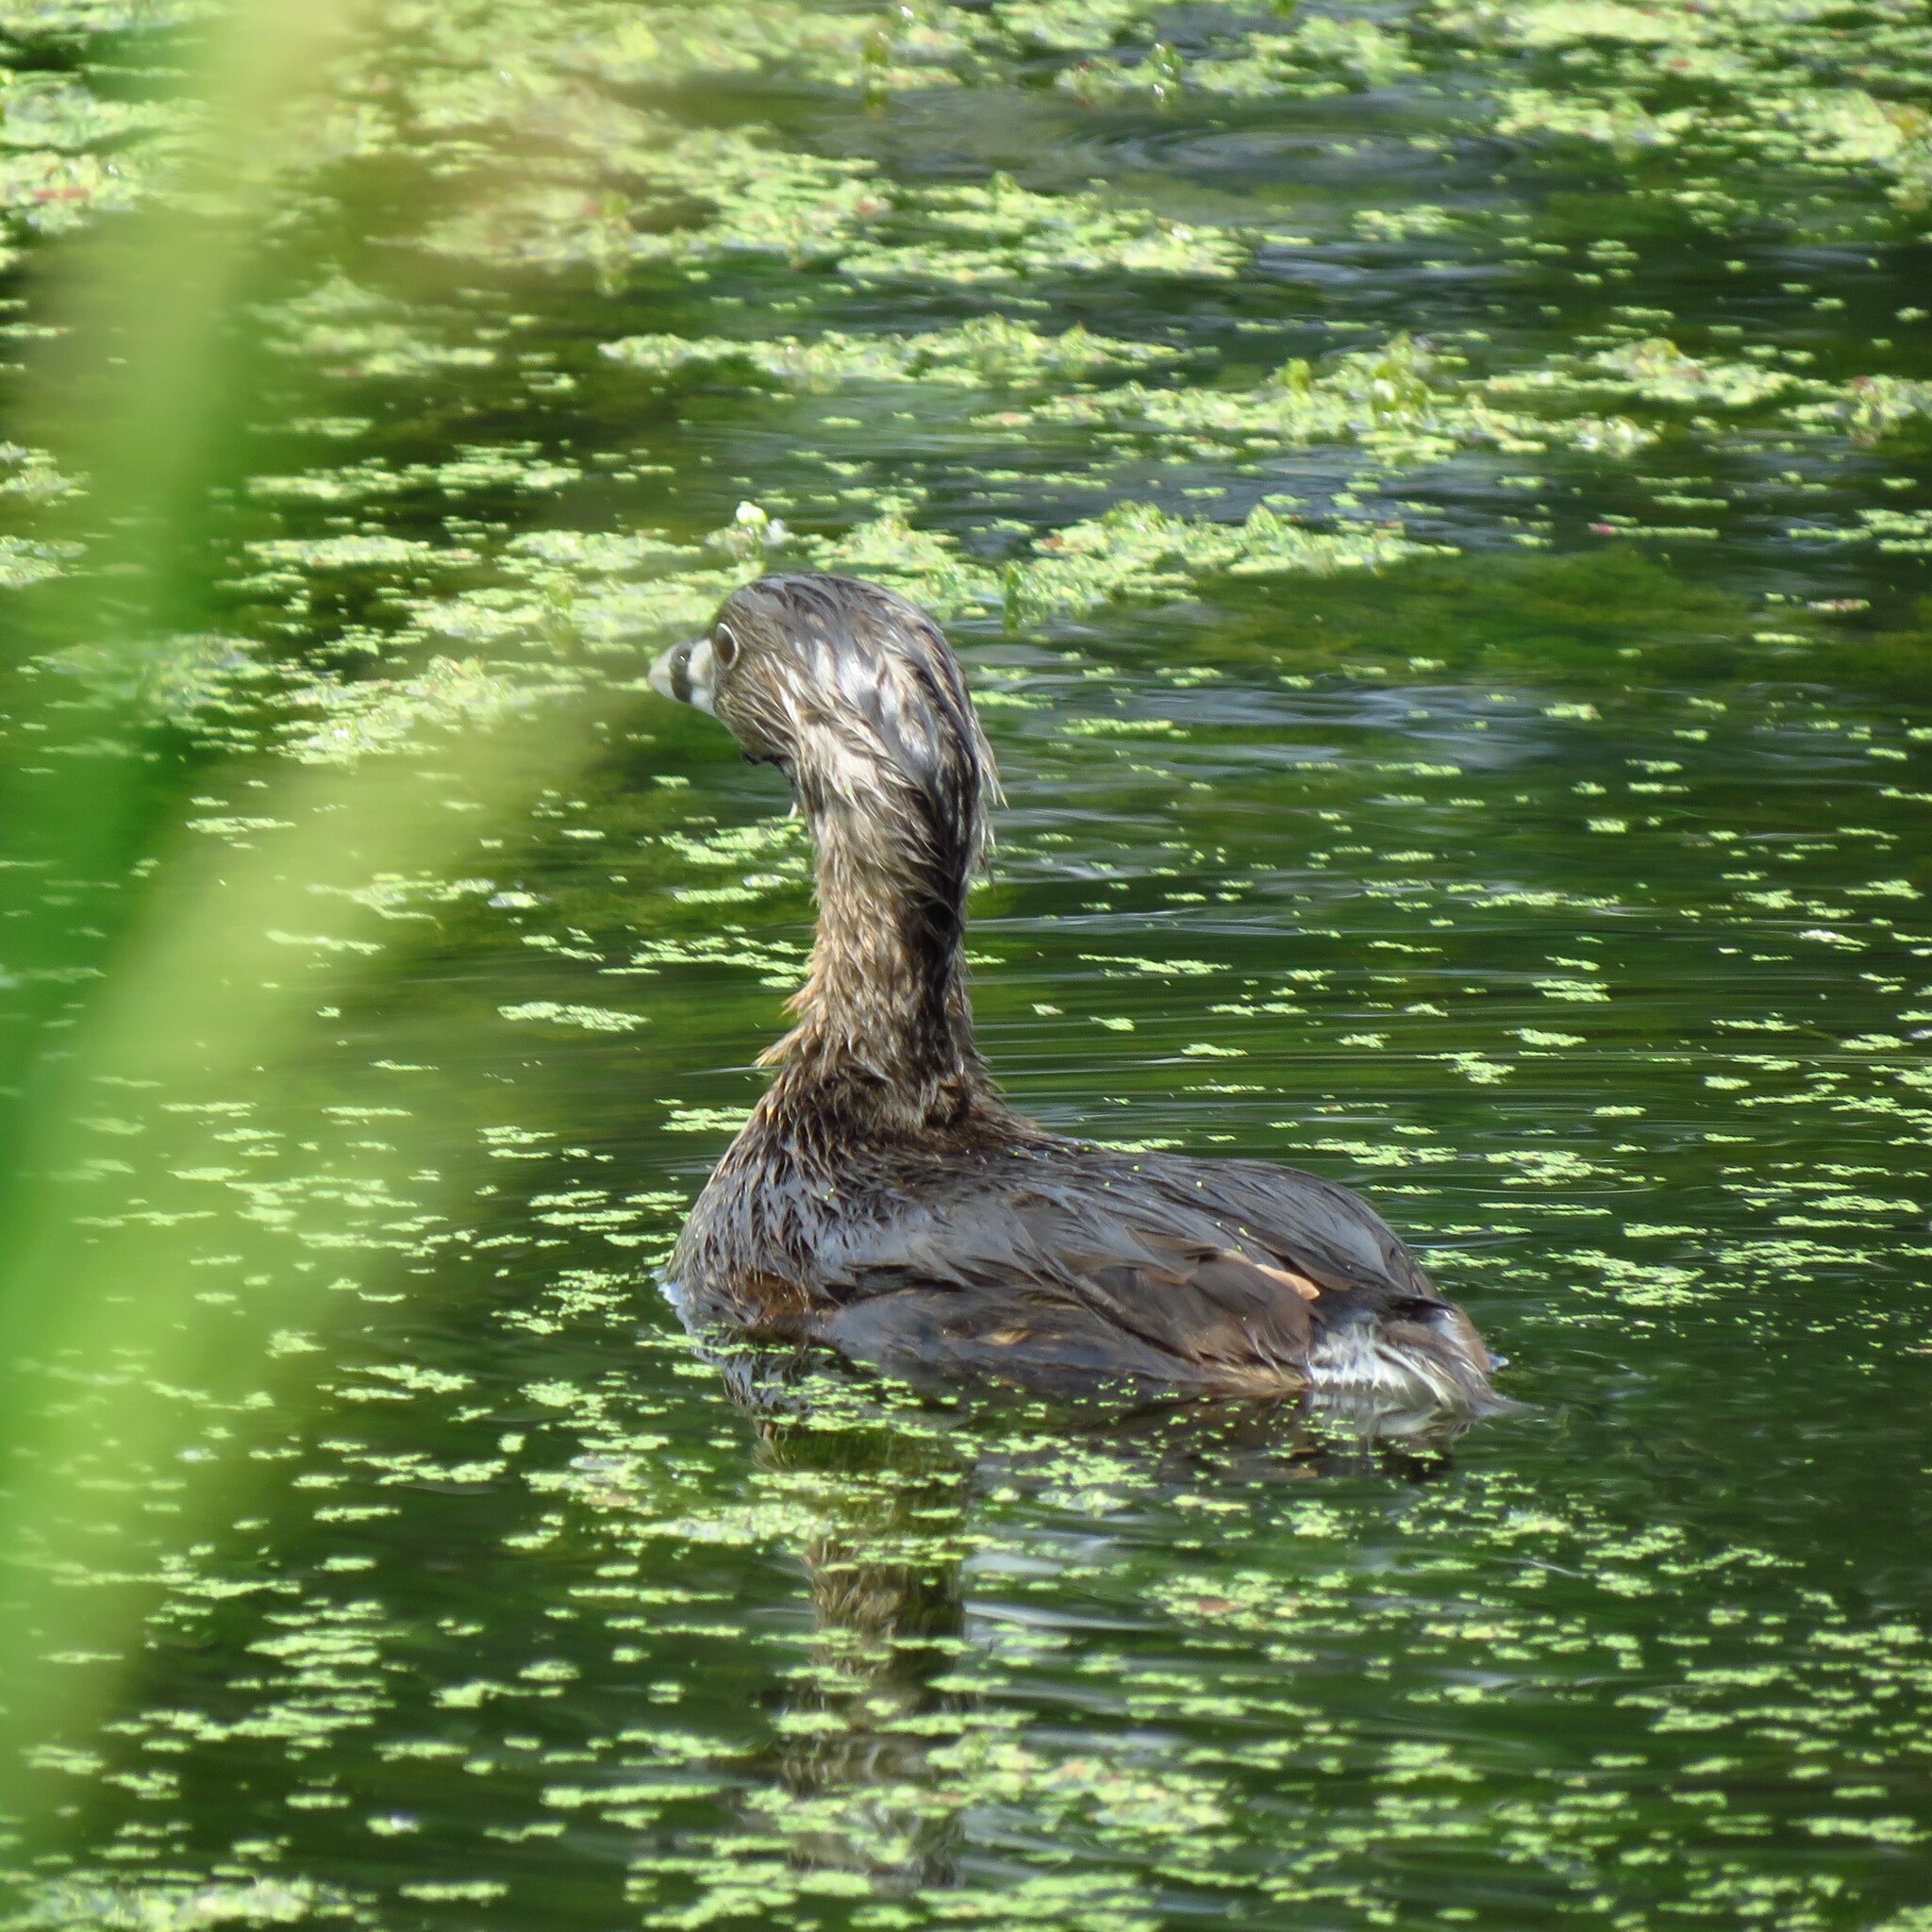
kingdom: Animalia
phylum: Chordata
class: Aves
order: Podicipediformes
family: Podicipedidae
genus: Podilymbus
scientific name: Podilymbus podiceps
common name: Pied-billed grebe
